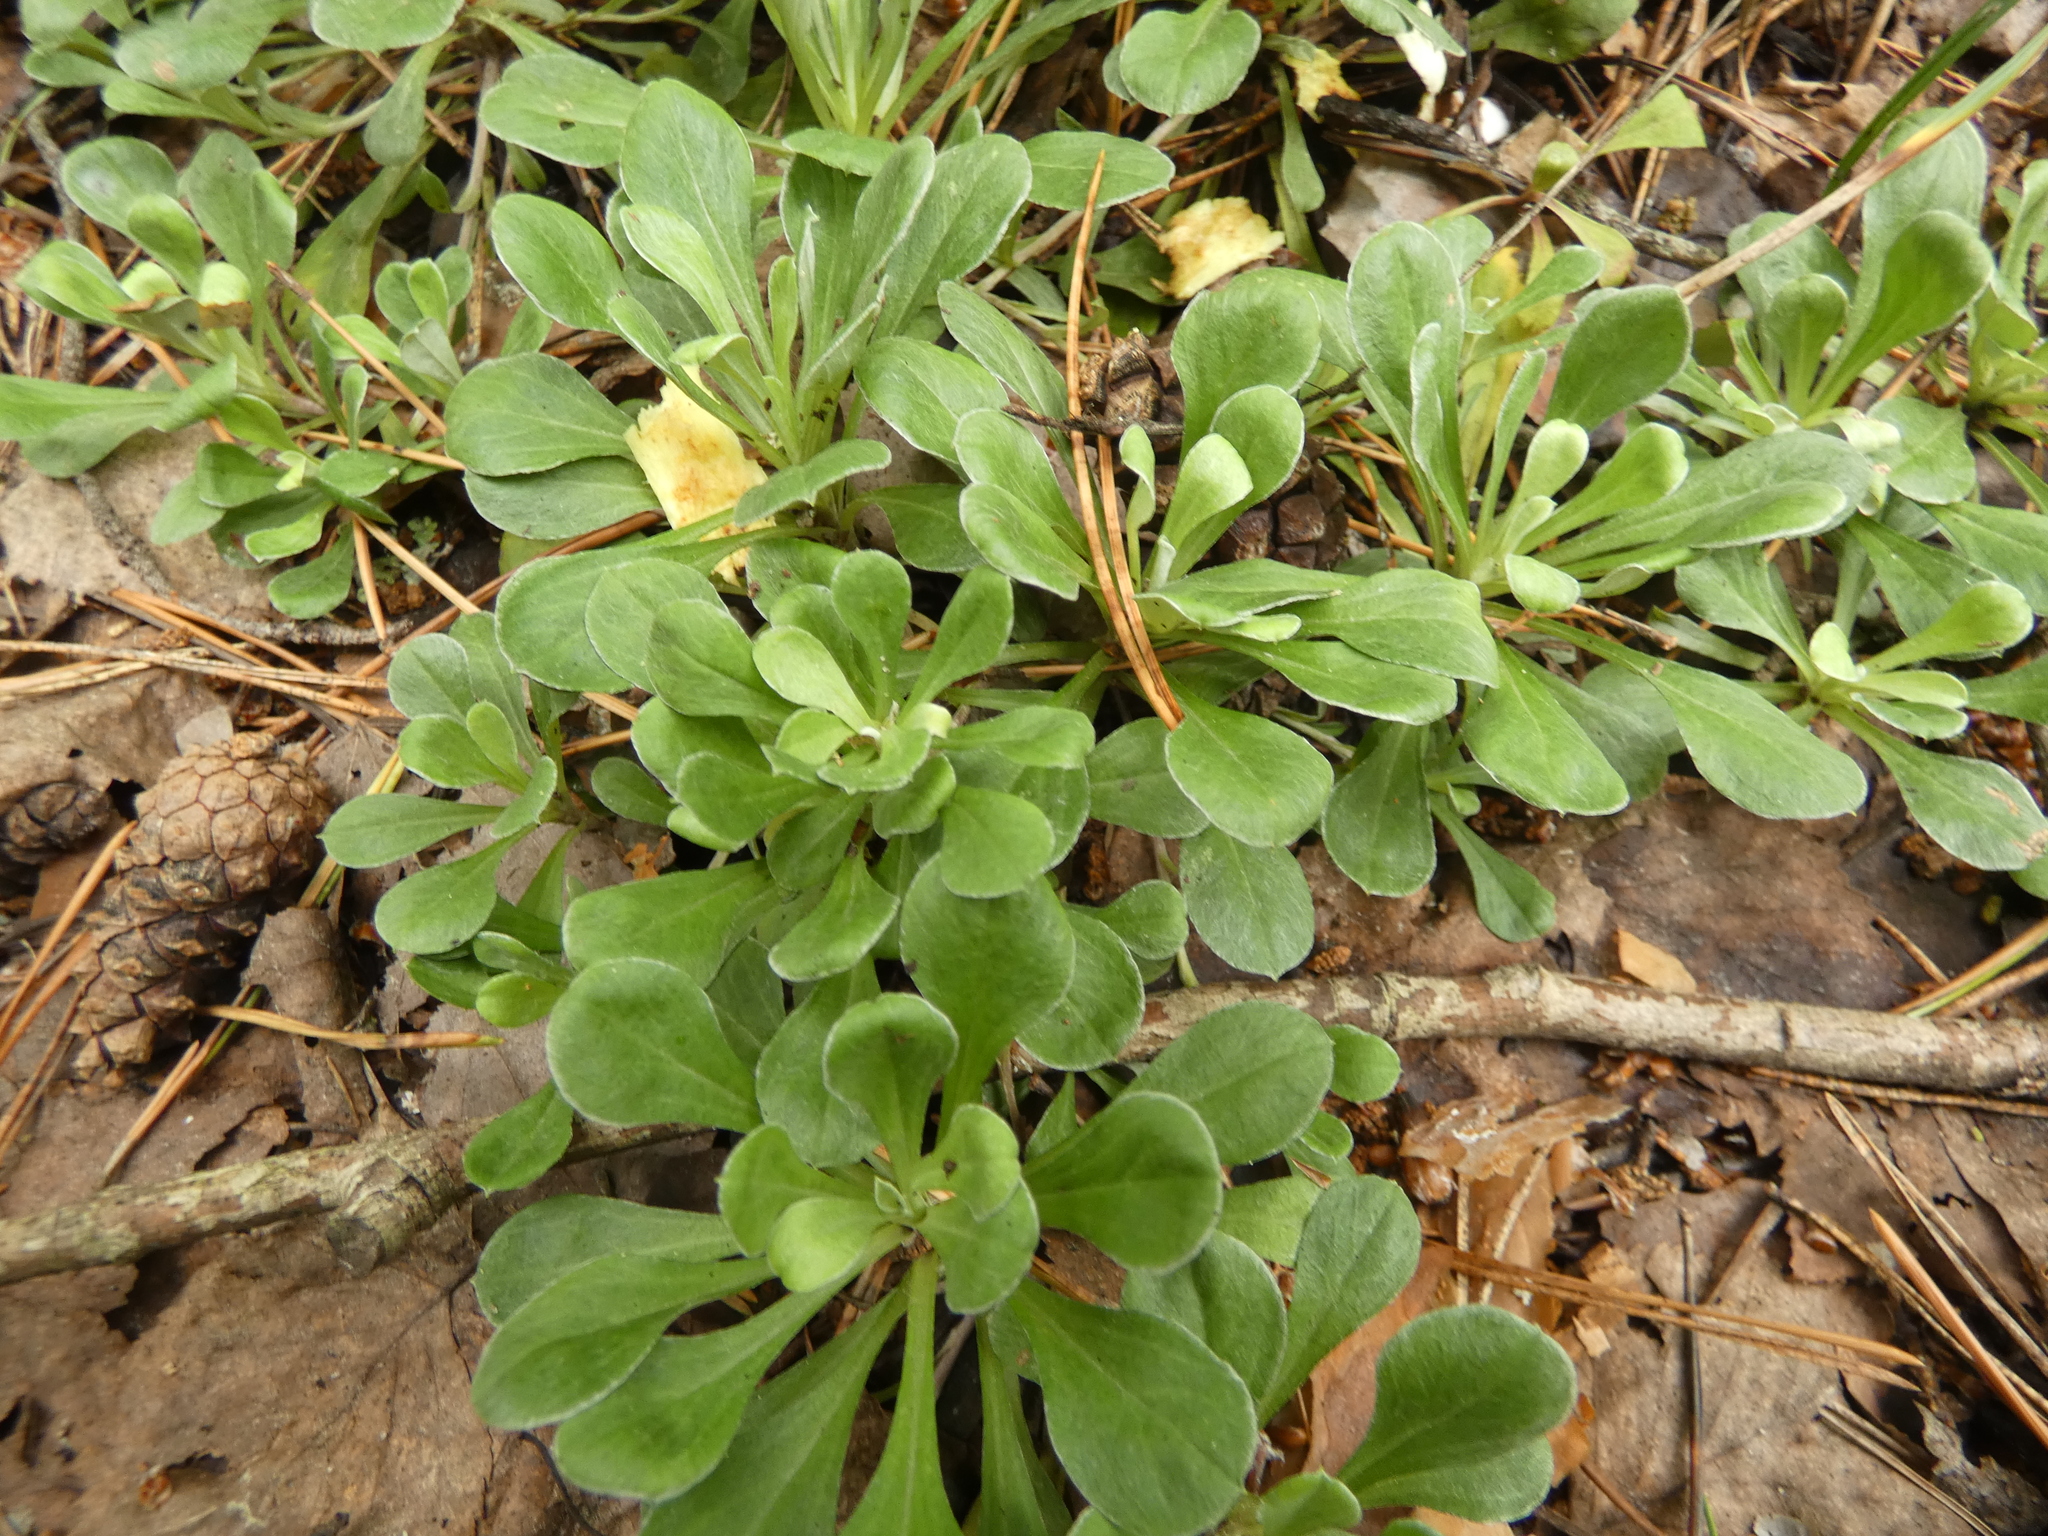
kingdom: Plantae
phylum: Tracheophyta
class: Magnoliopsida
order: Asterales
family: Asteraceae
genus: Antennaria
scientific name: Antennaria dioica
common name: Mountain everlasting
